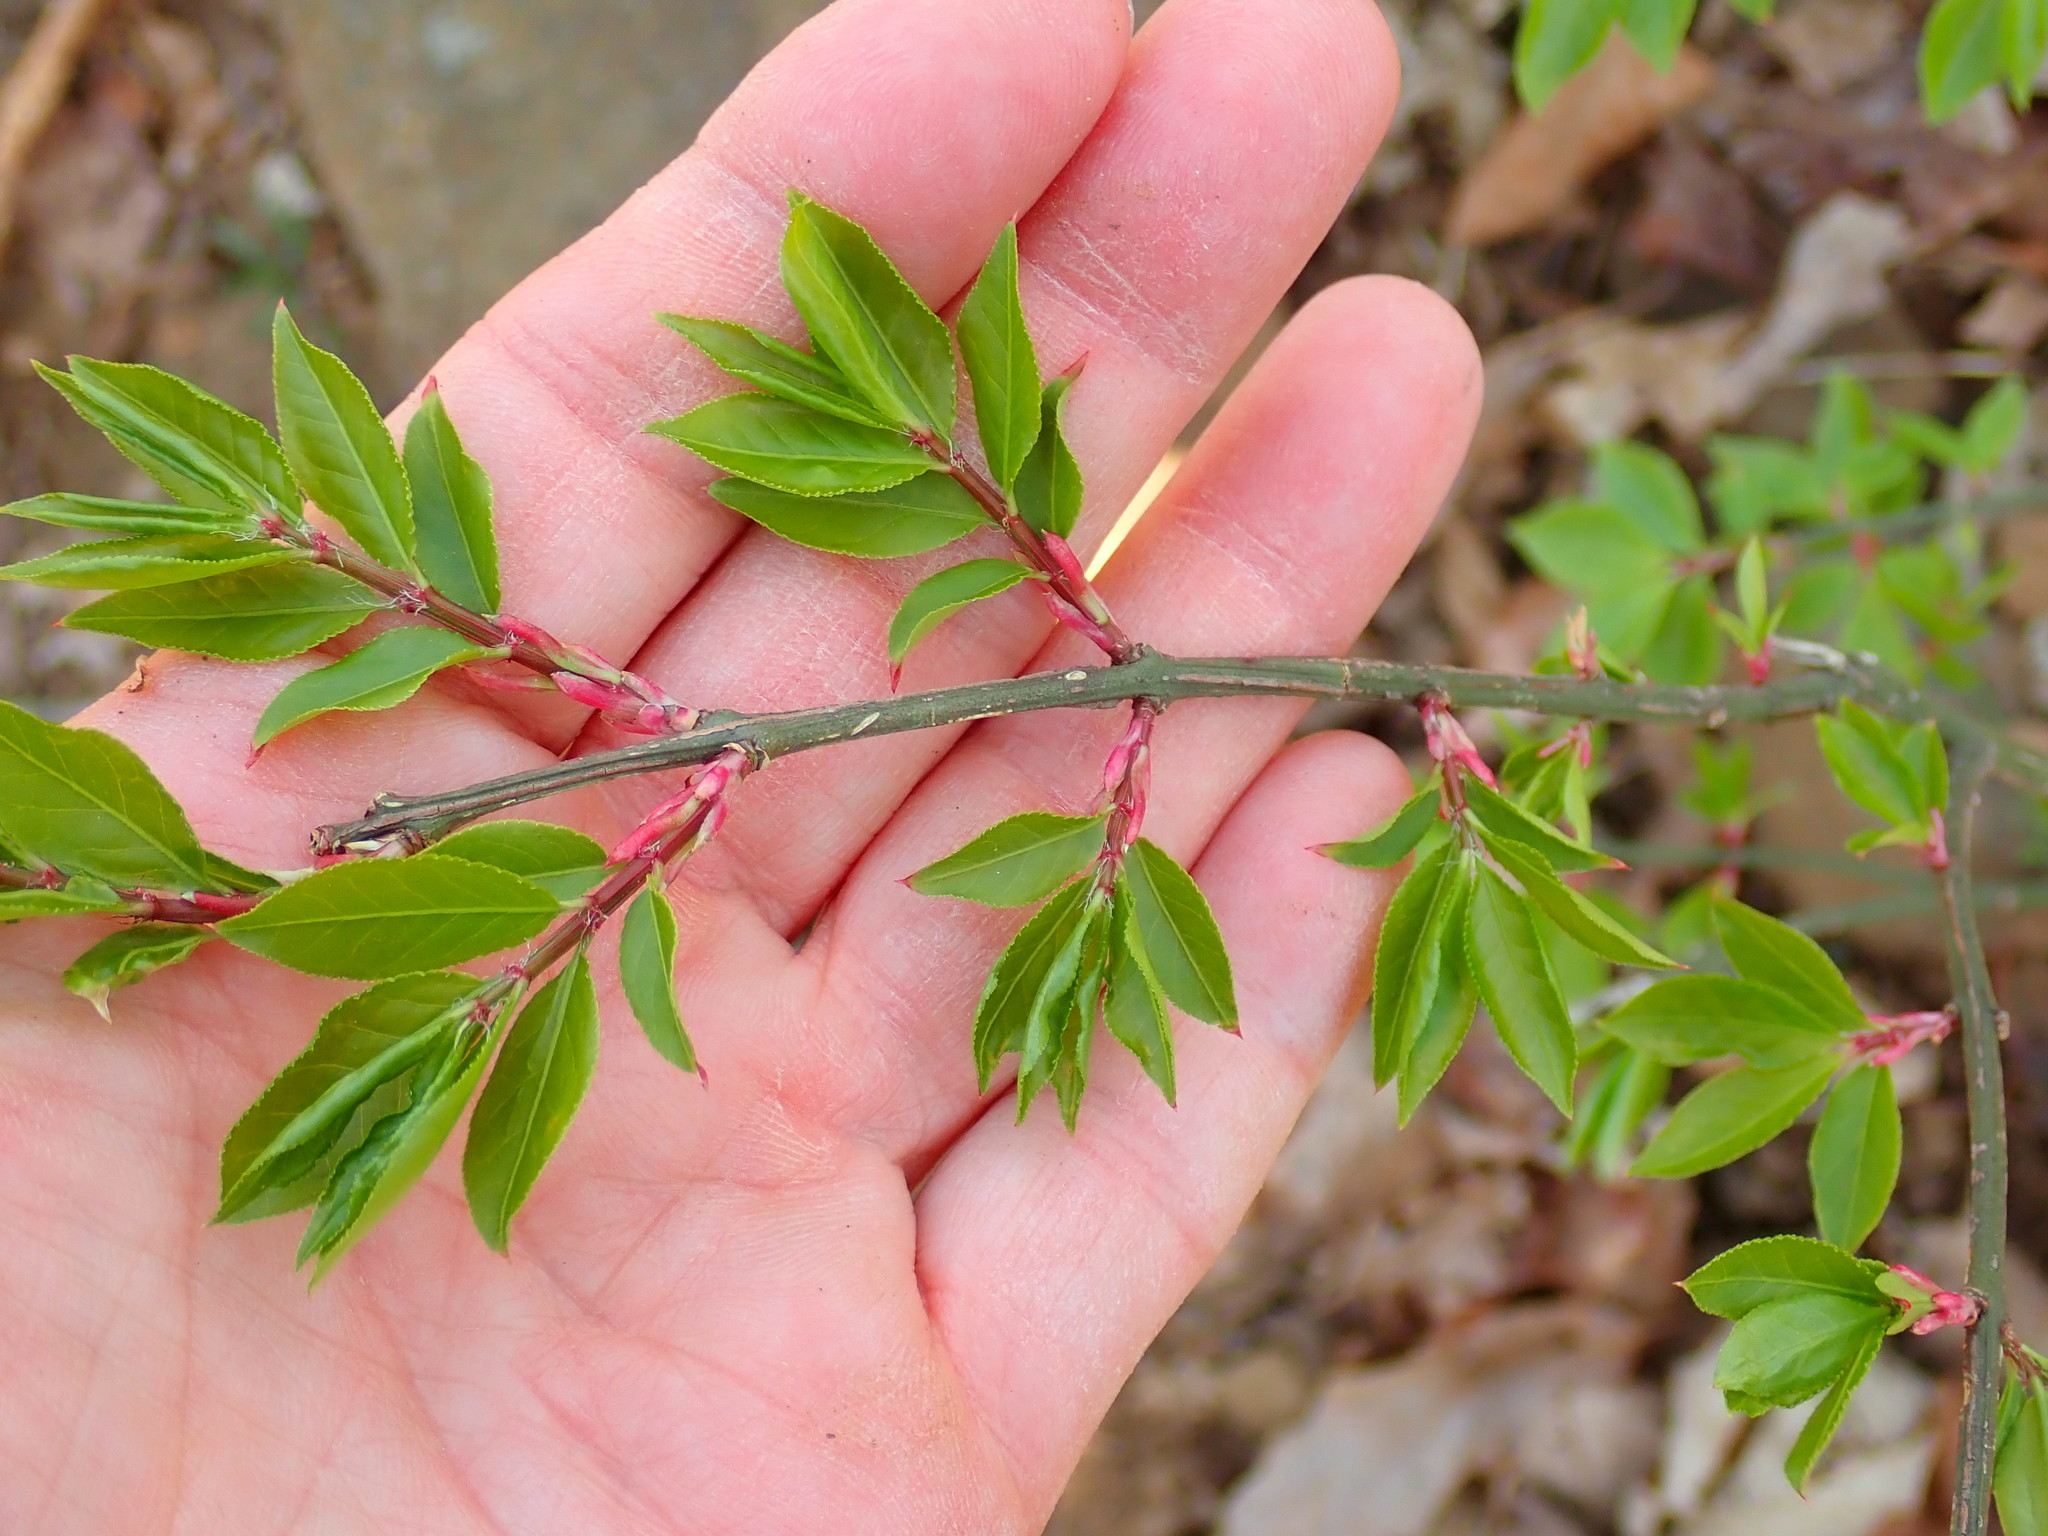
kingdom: Plantae
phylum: Tracheophyta
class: Magnoliopsida
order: Celastrales
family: Celastraceae
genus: Euonymus
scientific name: Euonymus alatus
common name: Winged euonymus
